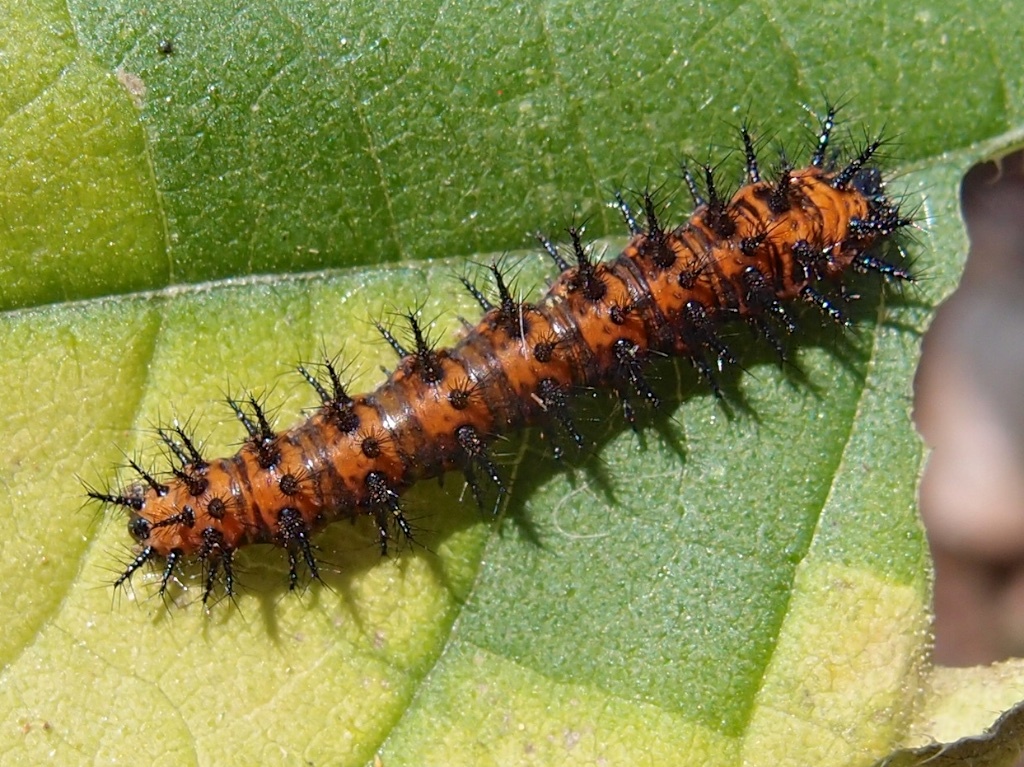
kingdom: Animalia
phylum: Arthropoda
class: Insecta
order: Lepidoptera
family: Nymphalidae
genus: Chlosyne
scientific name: Chlosyne lacinia
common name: Bordered patch
